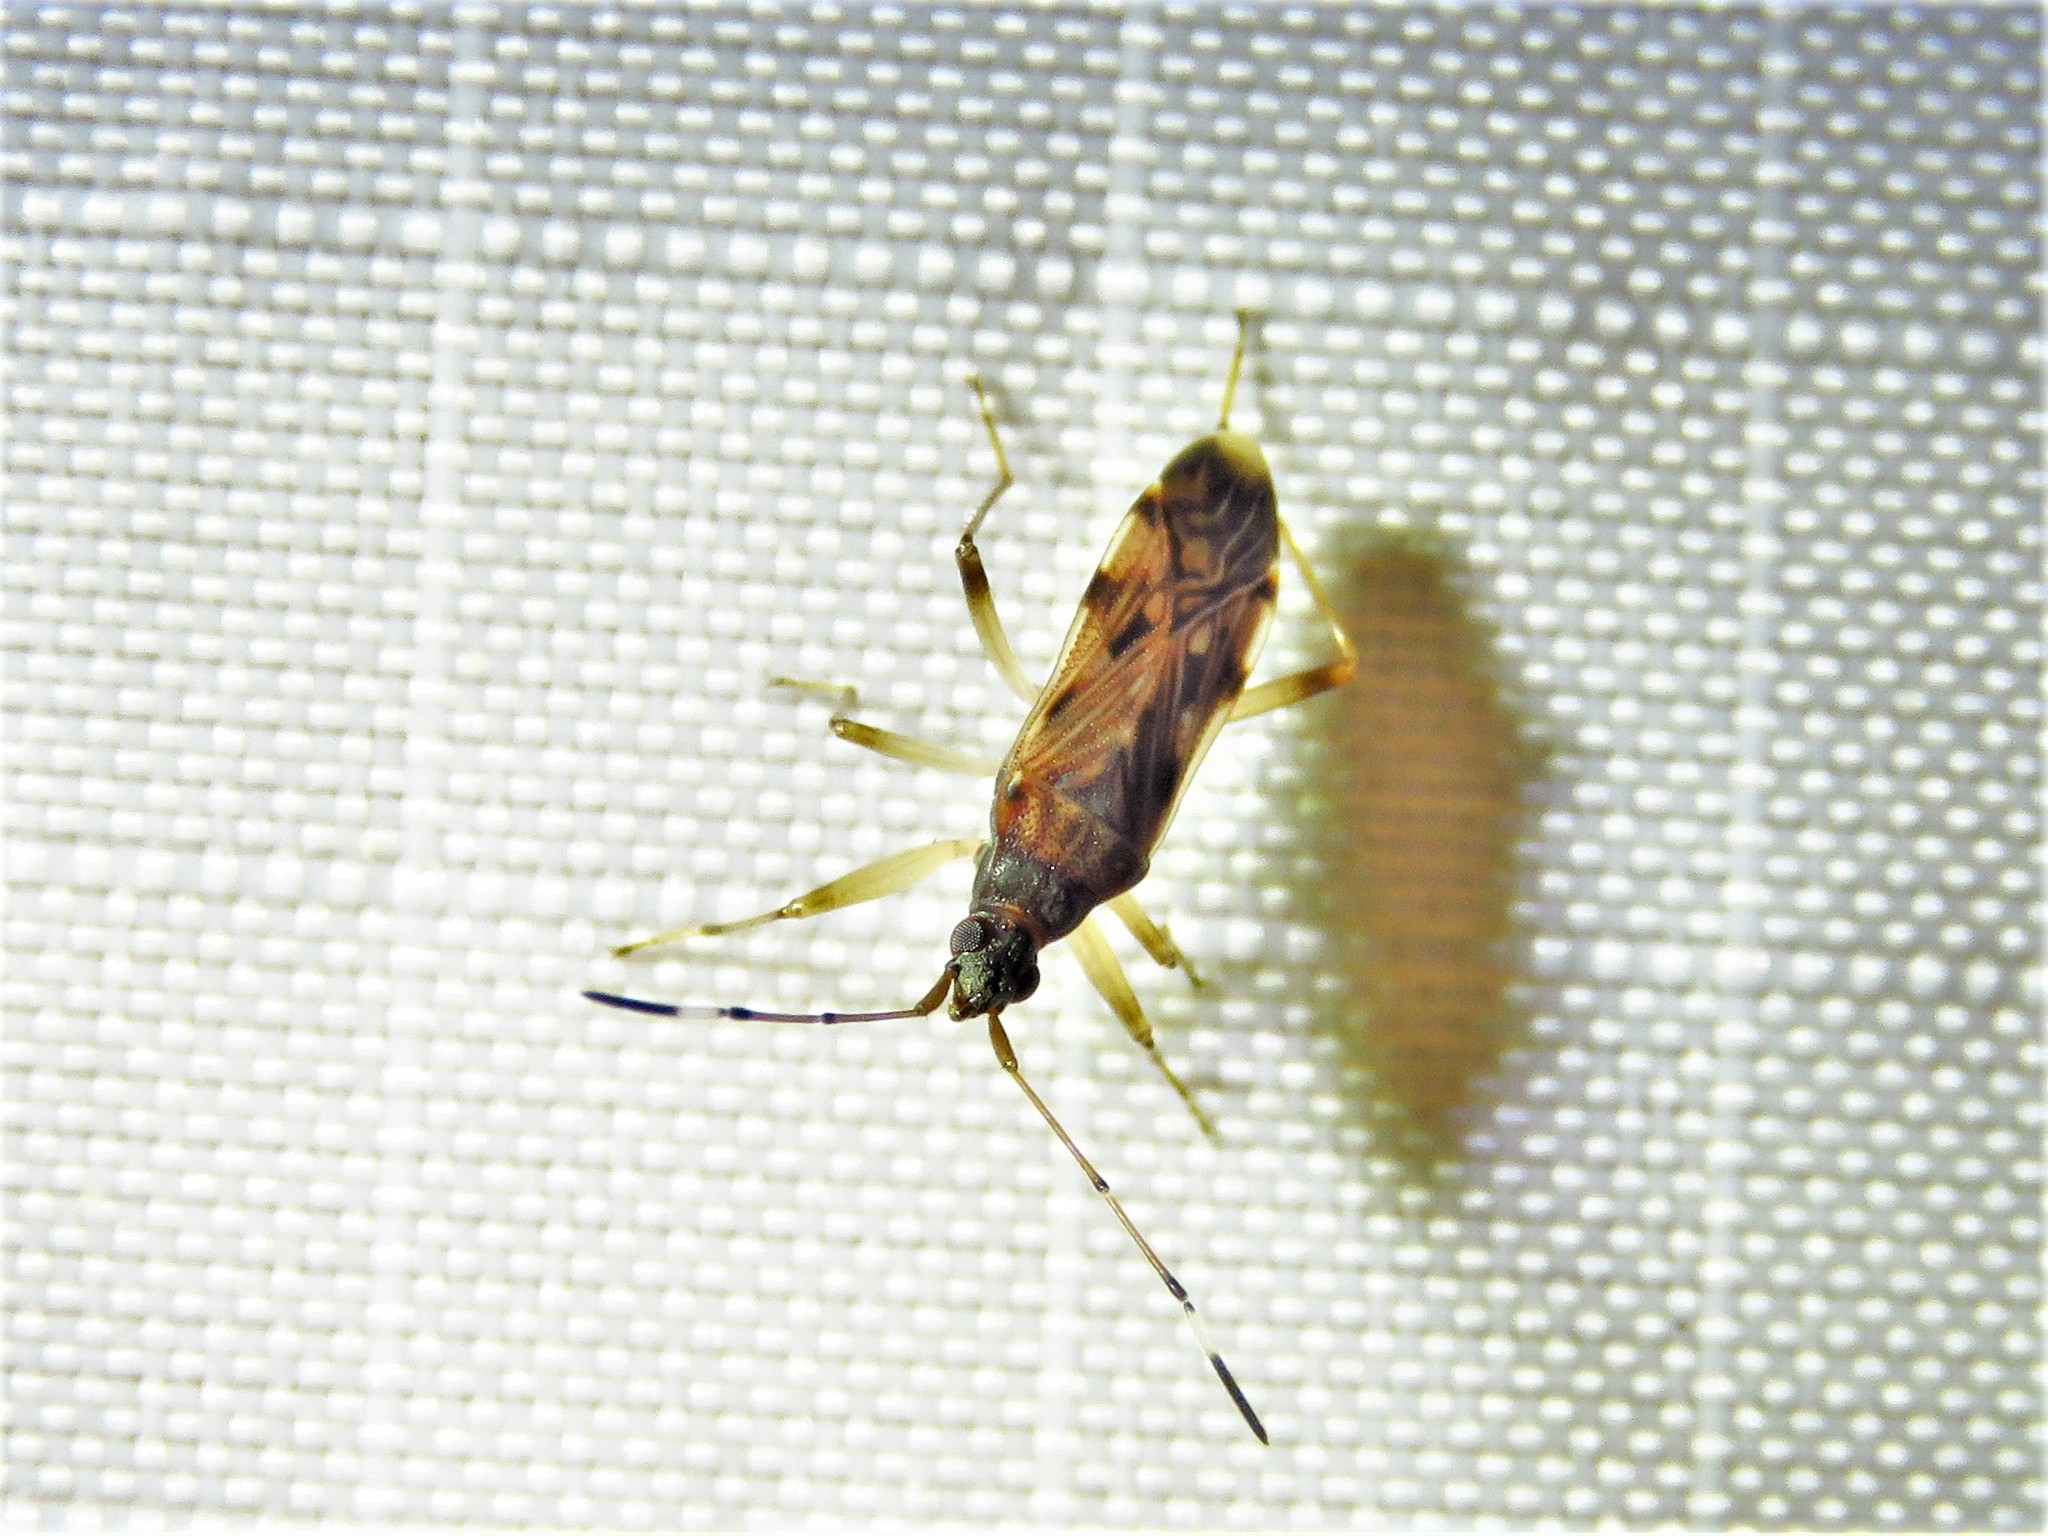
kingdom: Animalia
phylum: Arthropoda
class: Insecta
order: Hemiptera
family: Rhyparochromidae
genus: Ozophora
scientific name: Ozophora picturata
